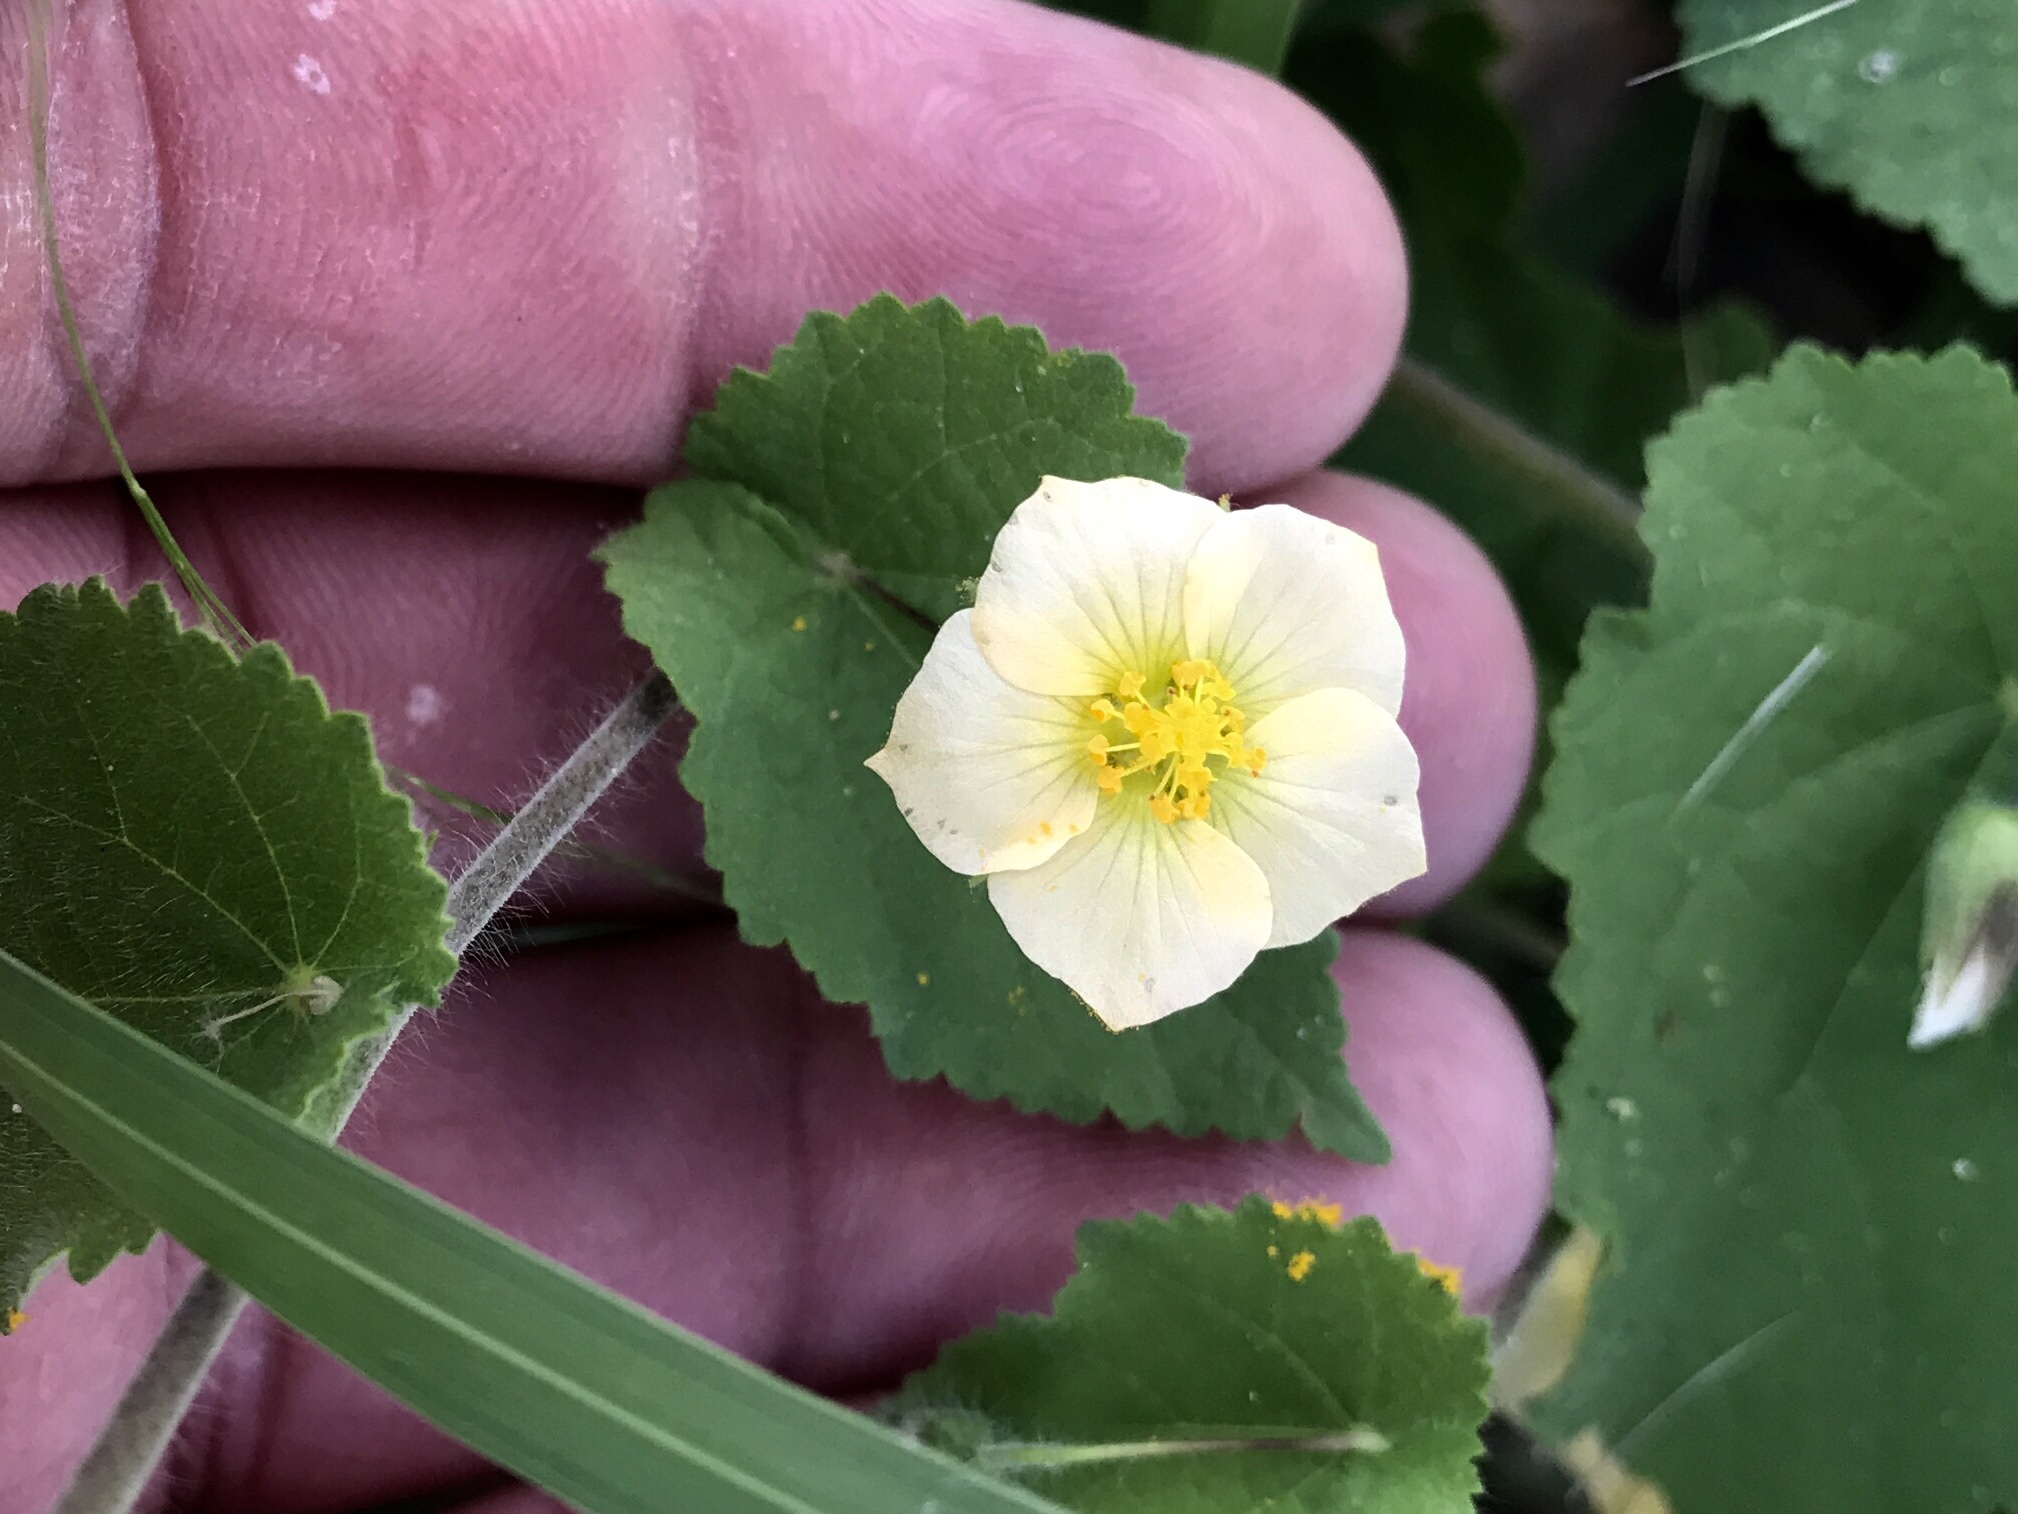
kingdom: Plantae
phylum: Tracheophyta
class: Magnoliopsida
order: Malvales
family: Malvaceae
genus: Herissantia
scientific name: Herissantia crispa
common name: Bladdermallow
